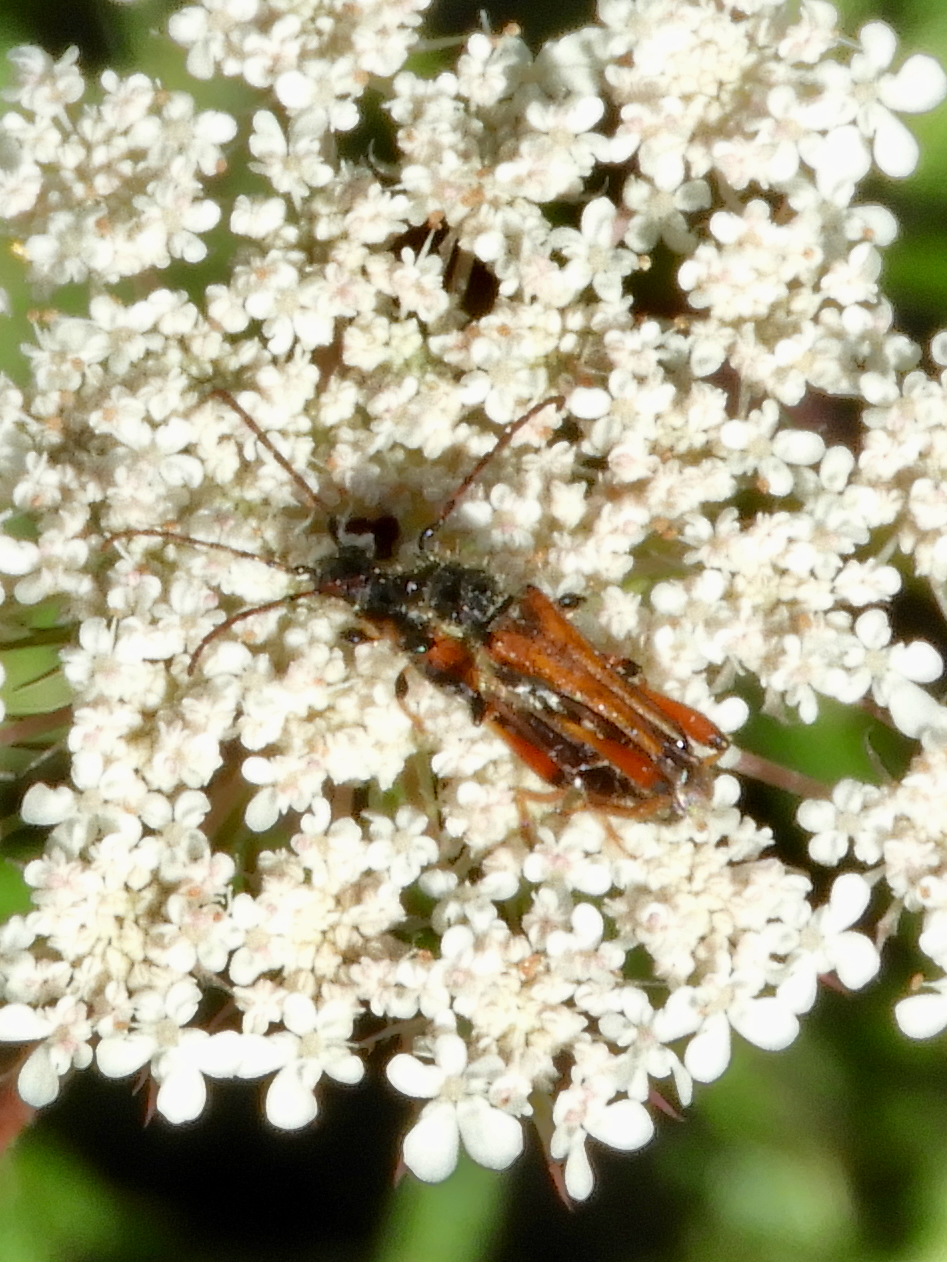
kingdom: Animalia
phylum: Arthropoda
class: Insecta
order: Coleoptera
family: Cerambycidae
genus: Stenopterus
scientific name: Stenopterus rufus
